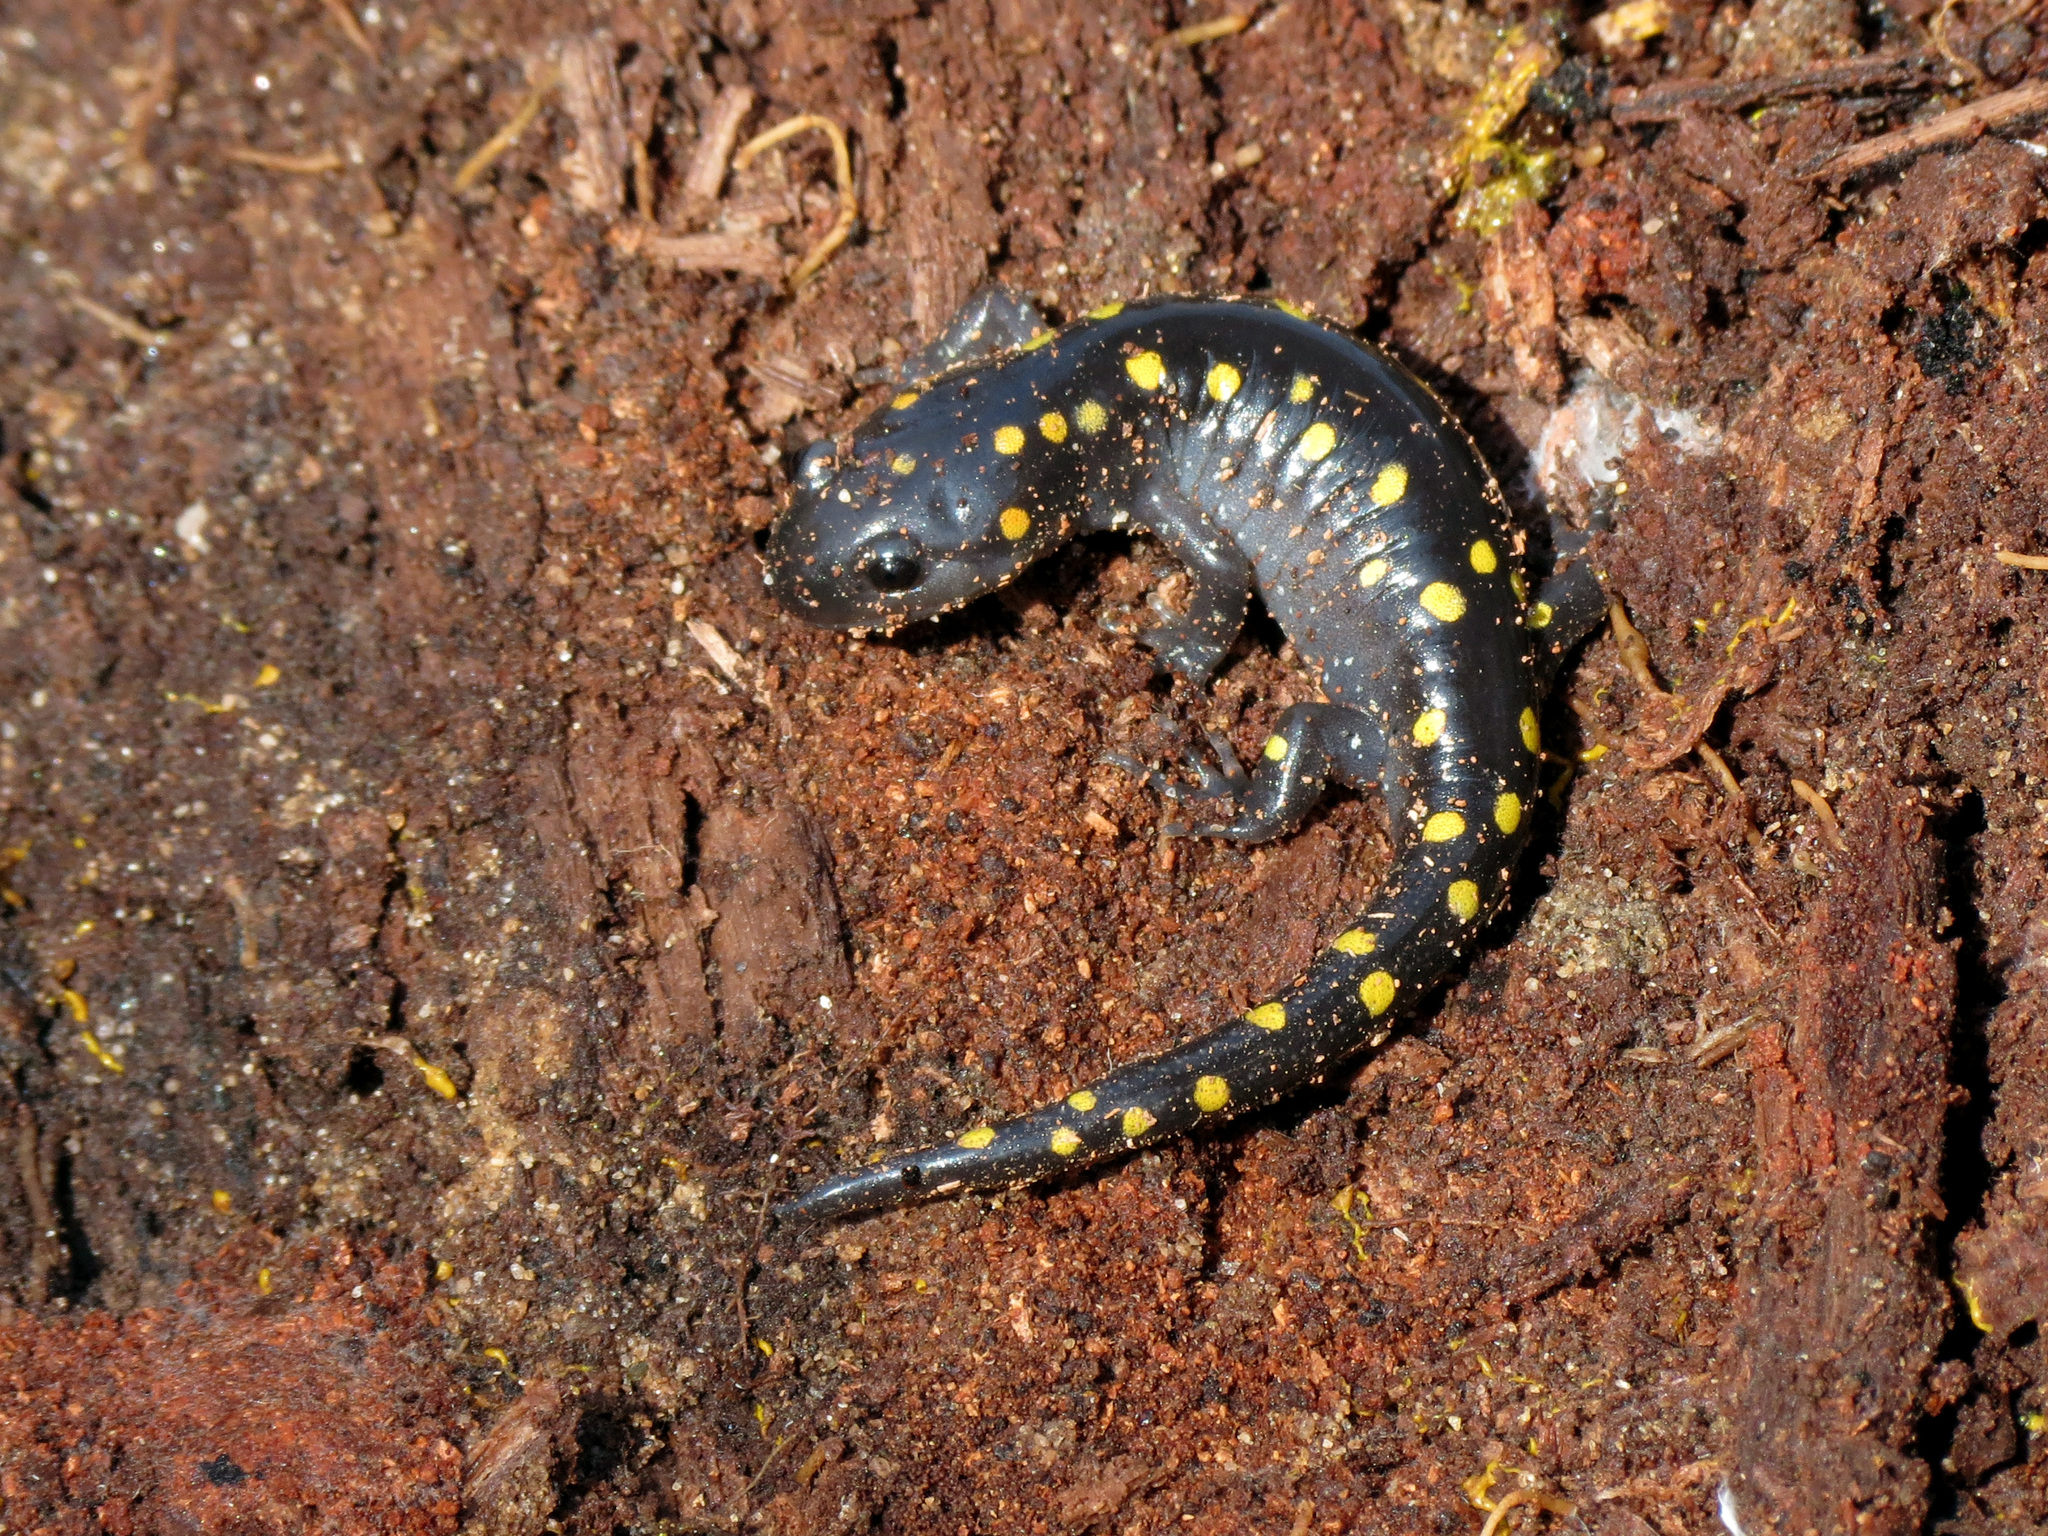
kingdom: Animalia
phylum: Chordata
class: Amphibia
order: Caudata
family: Ambystomatidae
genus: Ambystoma
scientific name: Ambystoma maculatum
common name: Spotted salamander
